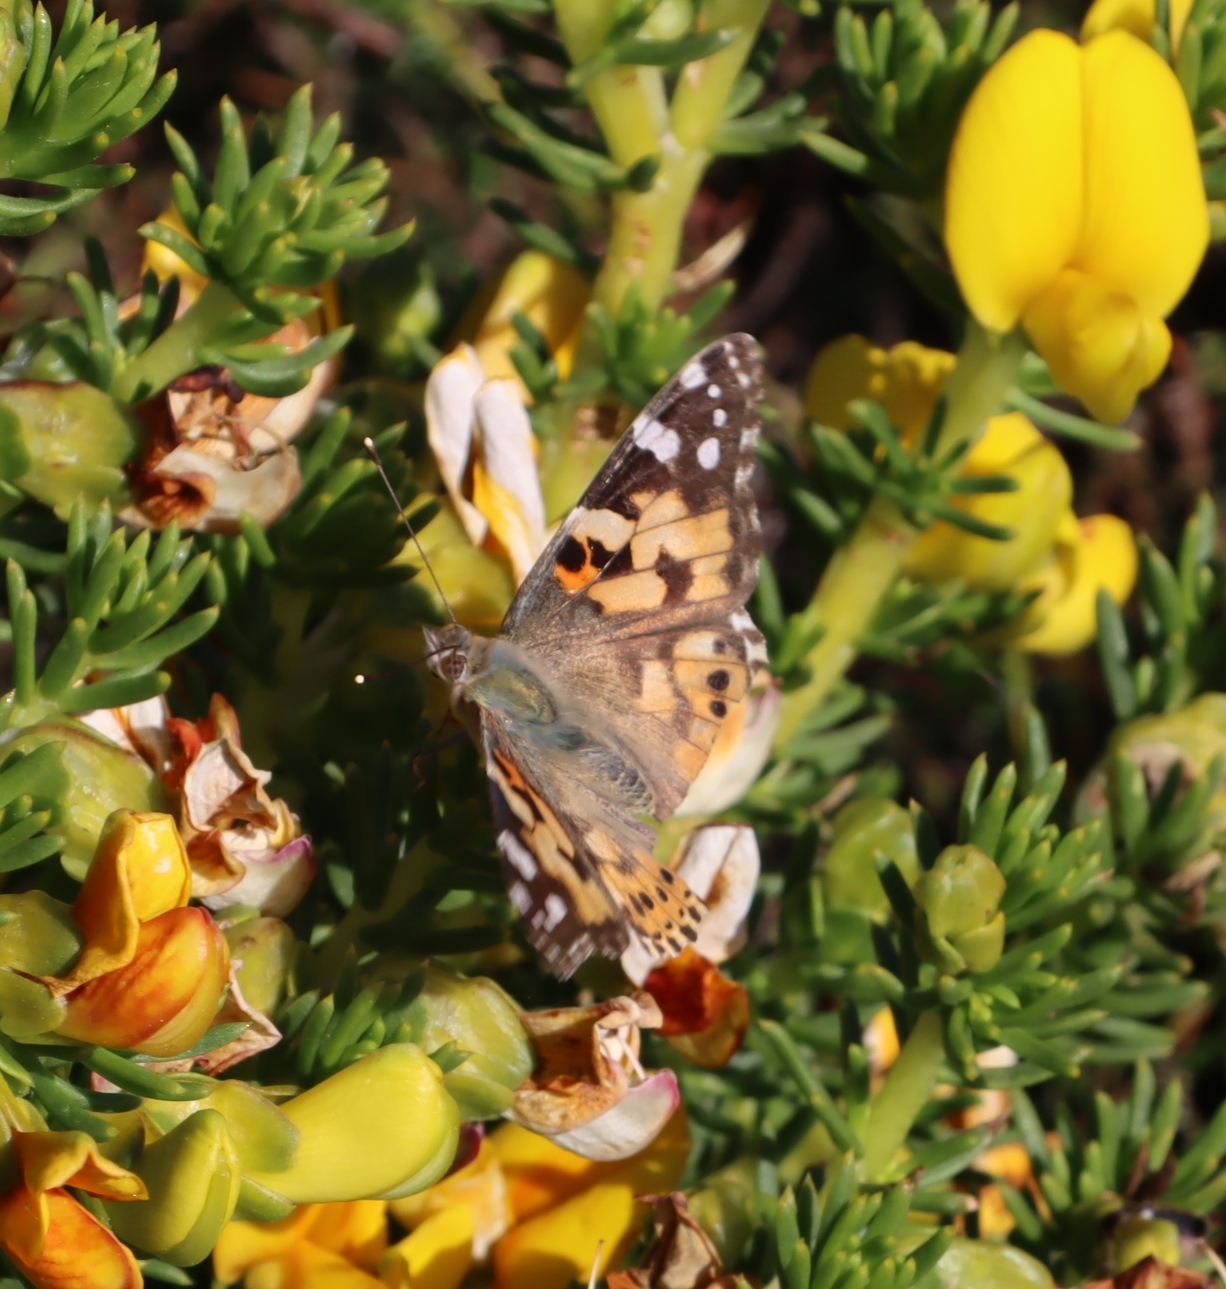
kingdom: Plantae
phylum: Tracheophyta
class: Magnoliopsida
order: Fabales
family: Fabaceae
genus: Aspalathus
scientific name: Aspalathus capensis
